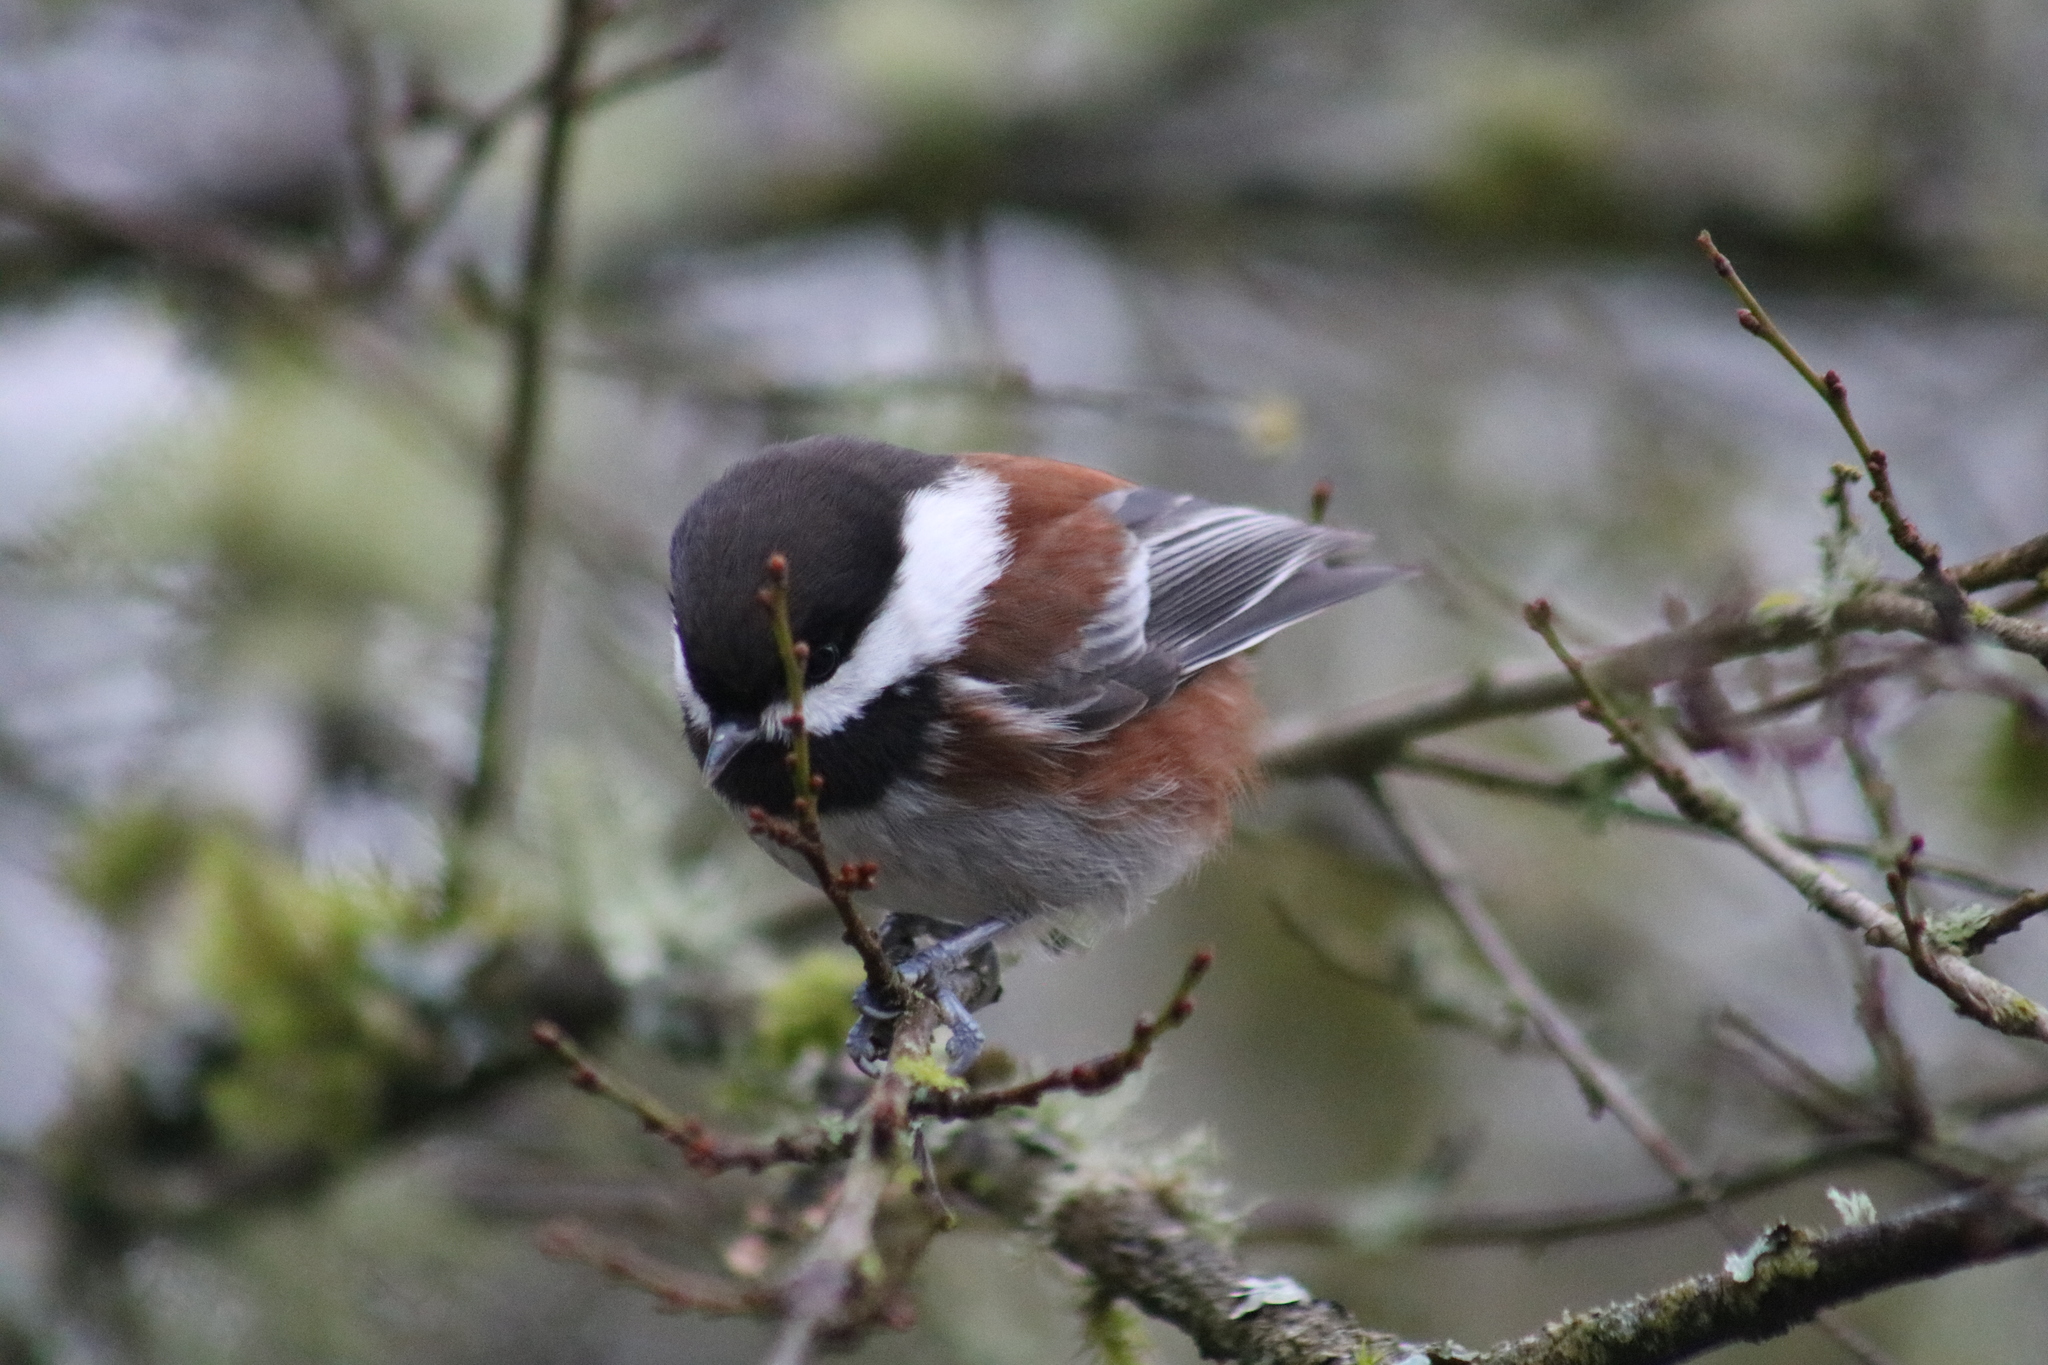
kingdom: Animalia
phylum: Chordata
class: Aves
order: Passeriformes
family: Paridae
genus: Poecile
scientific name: Poecile rufescens
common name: Chestnut-backed chickadee
